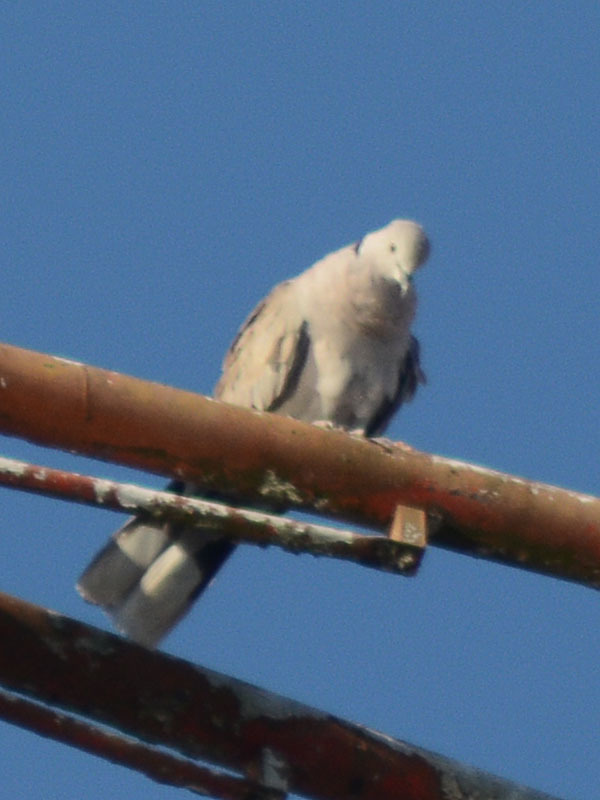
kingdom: Animalia
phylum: Chordata
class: Aves
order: Columbiformes
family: Columbidae
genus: Streptopelia
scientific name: Streptopelia decaocto
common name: Eurasian collared dove
